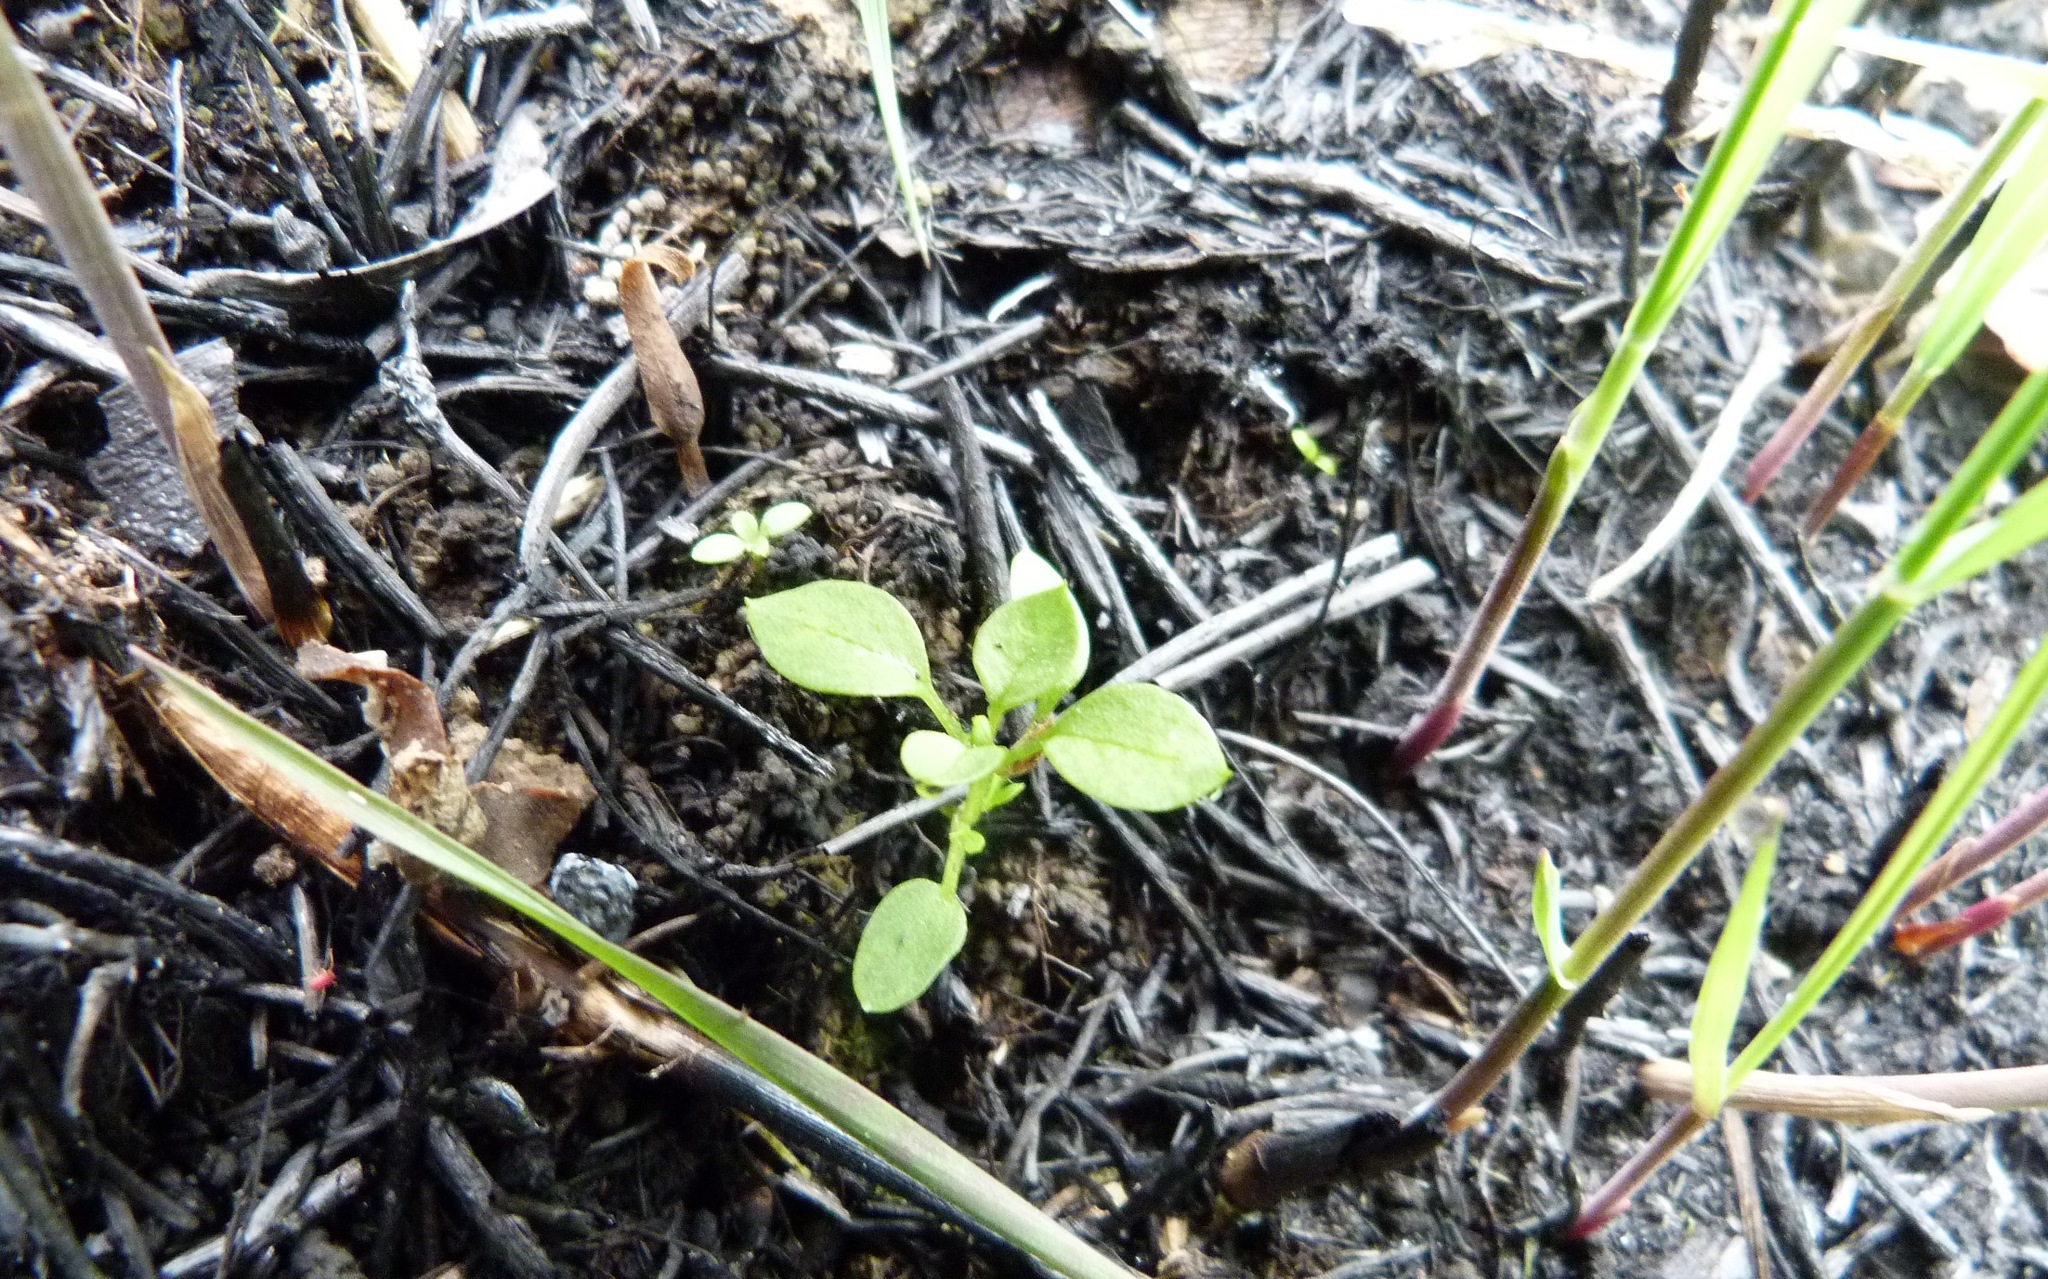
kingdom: Plantae
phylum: Tracheophyta
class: Magnoliopsida
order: Caryophyllales
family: Caryophyllaceae
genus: Stellaria
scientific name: Stellaria media
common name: Common chickweed
